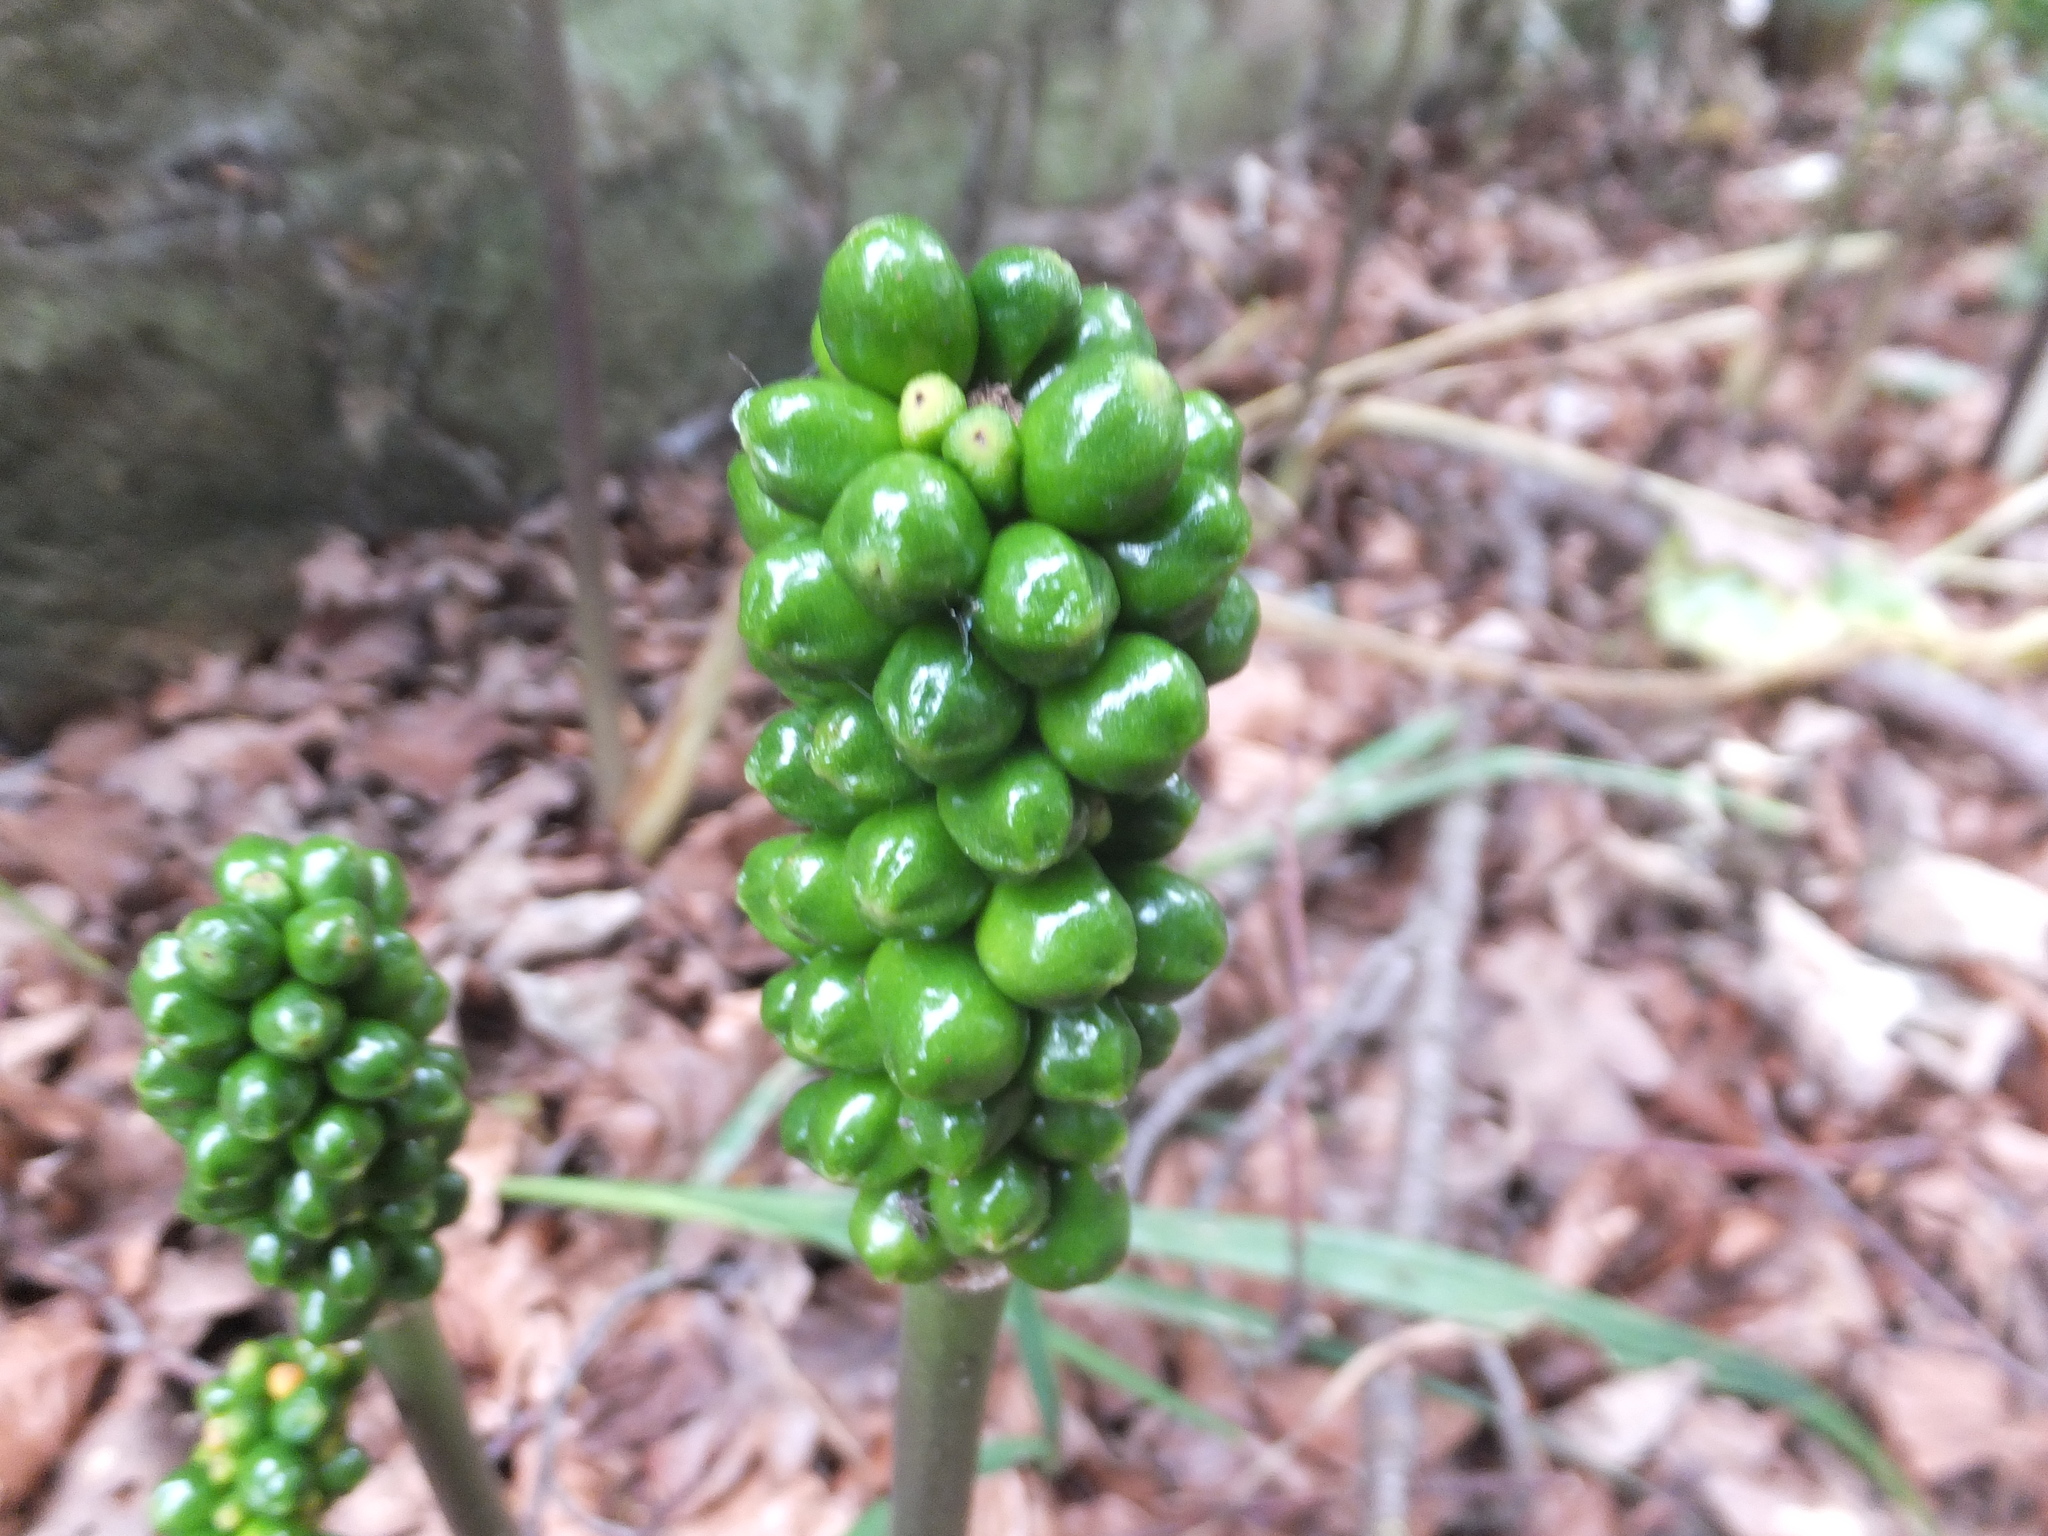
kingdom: Plantae
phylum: Tracheophyta
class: Liliopsida
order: Alismatales
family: Araceae
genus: Arum
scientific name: Arum maculatum
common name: Lords-and-ladies
